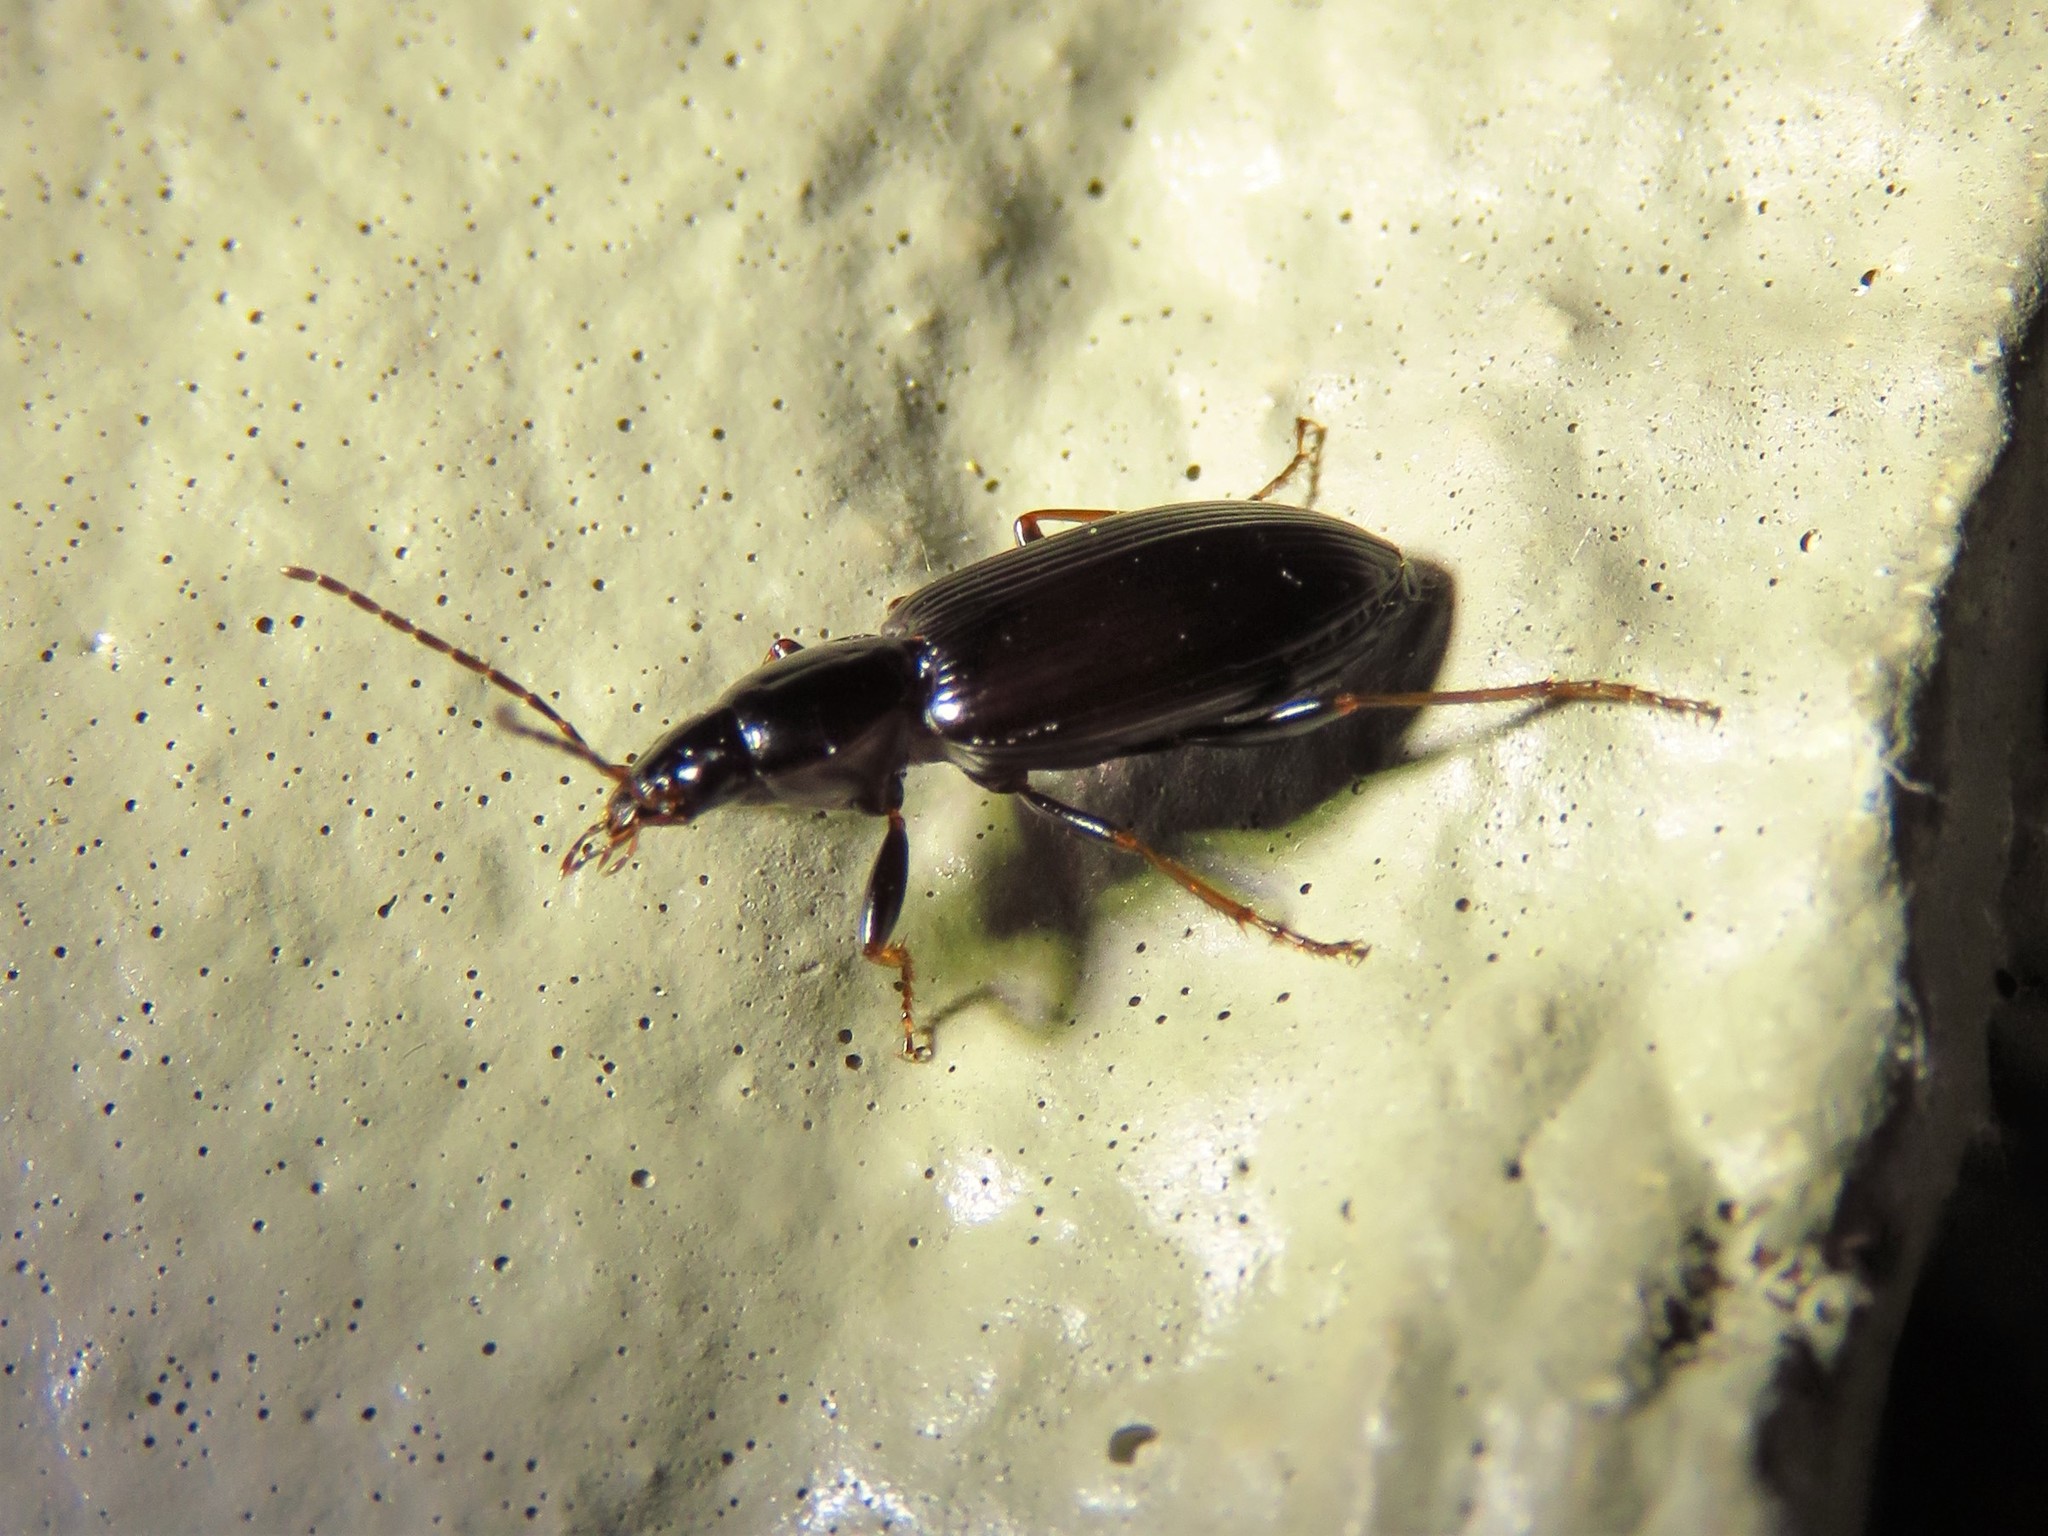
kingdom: Animalia
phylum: Arthropoda
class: Insecta
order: Coleoptera
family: Carabidae
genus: Agonum
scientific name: Agonum punctiforme
